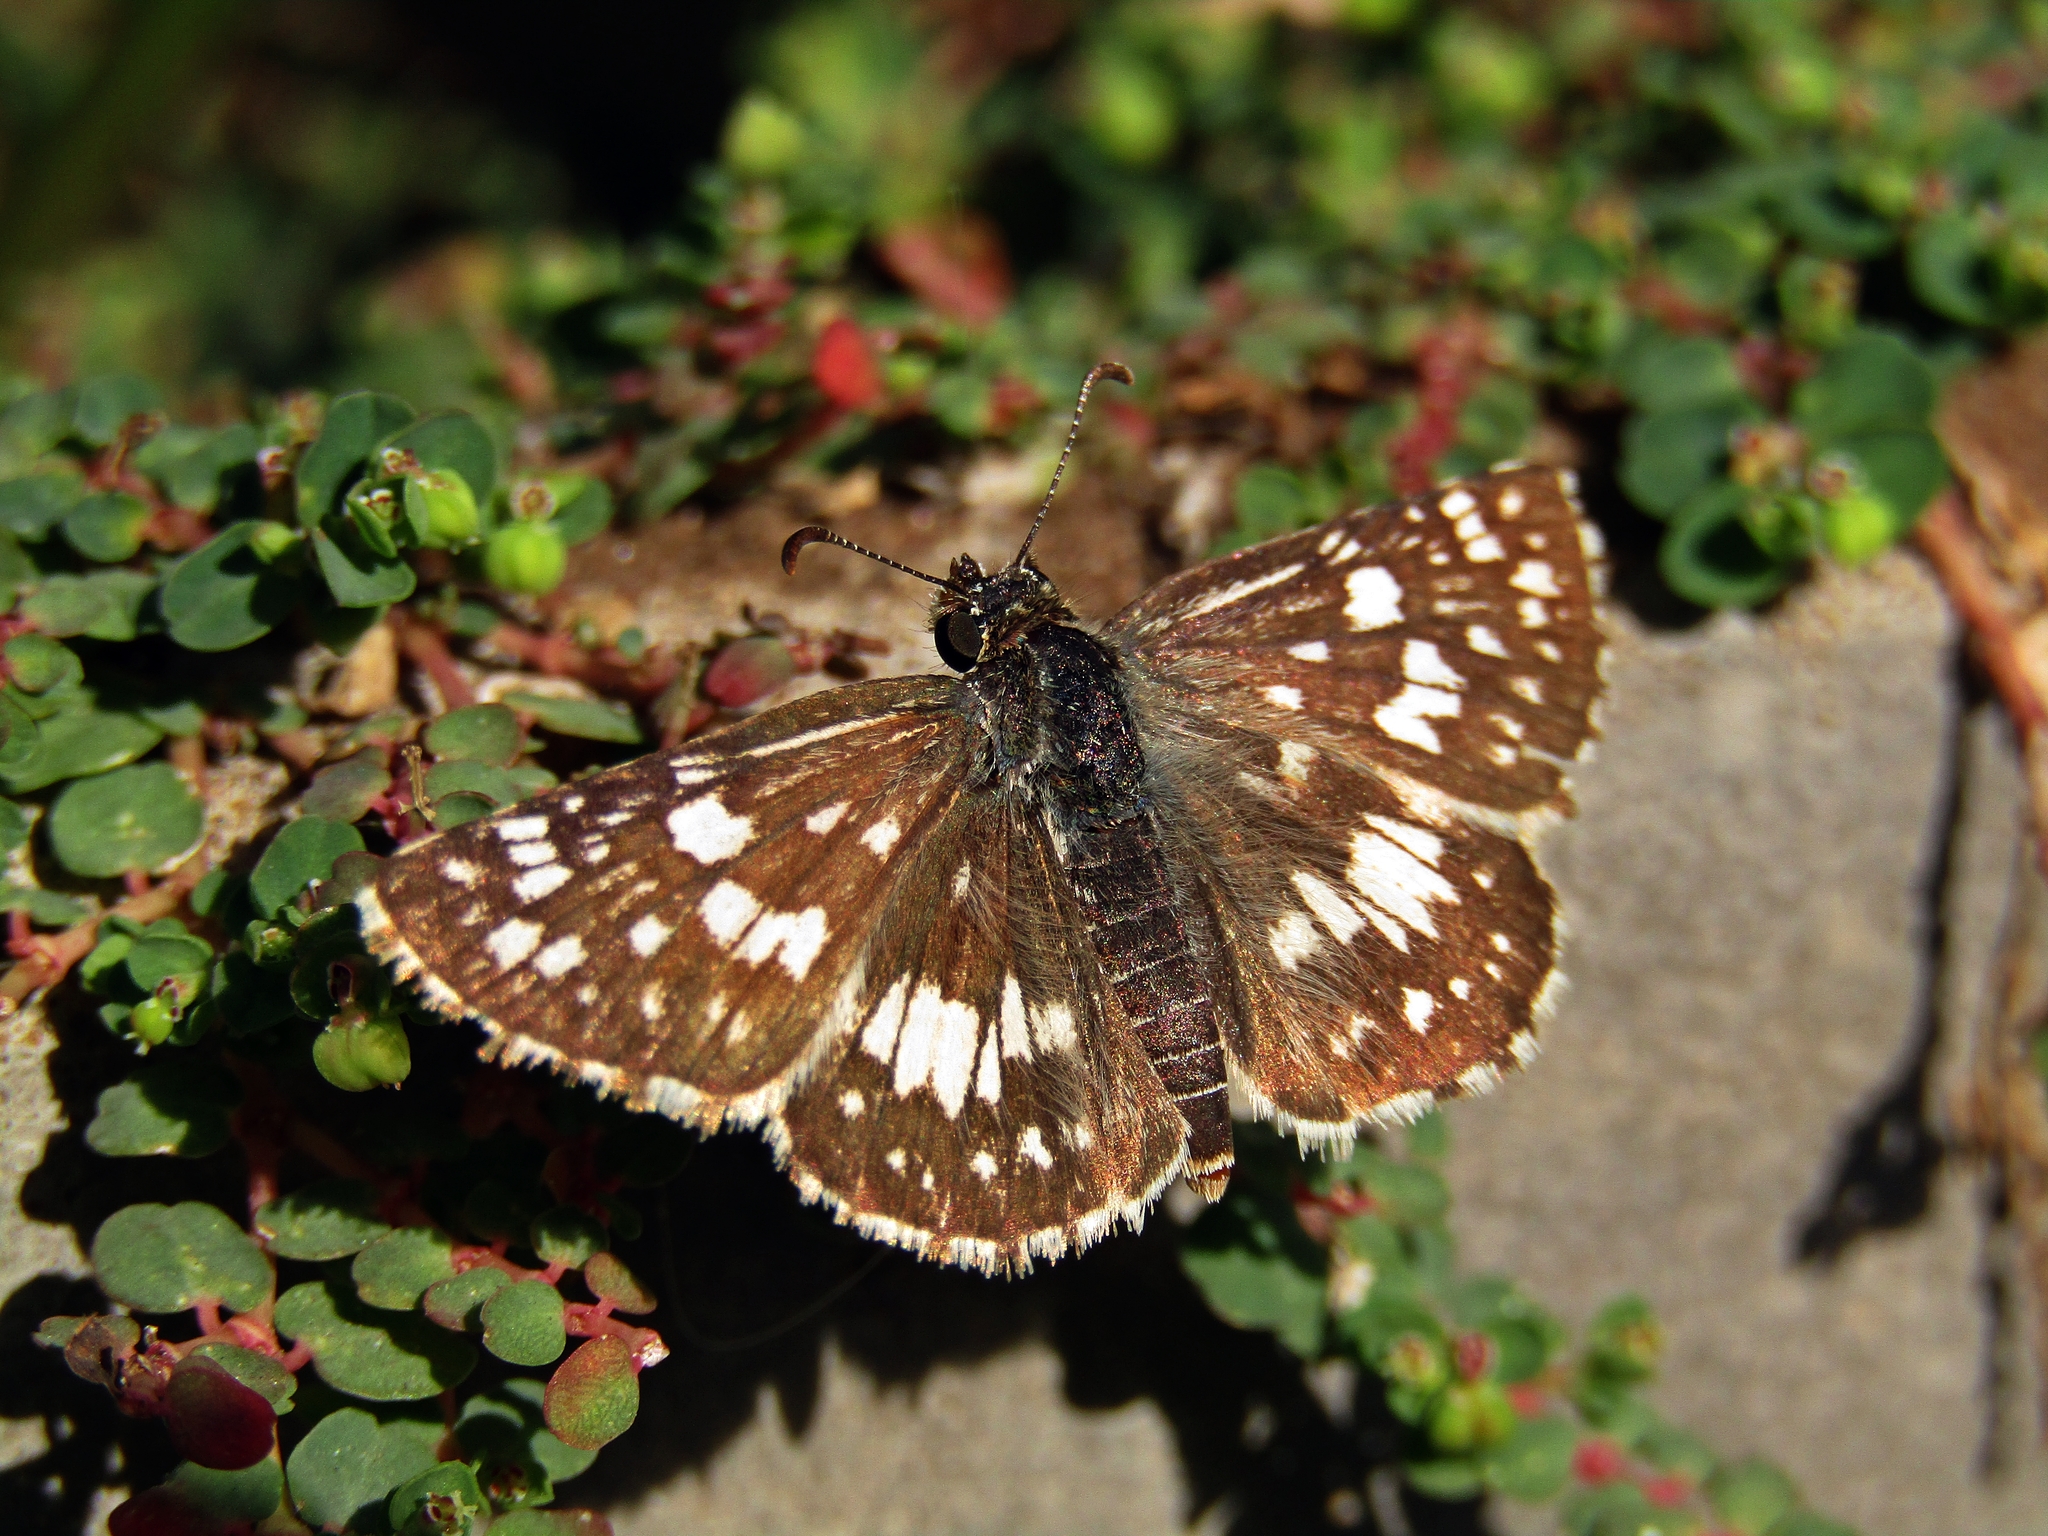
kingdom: Animalia
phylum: Arthropoda
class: Insecta
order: Lepidoptera
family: Hesperiidae
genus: Burnsius
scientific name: Burnsius orcynoides
